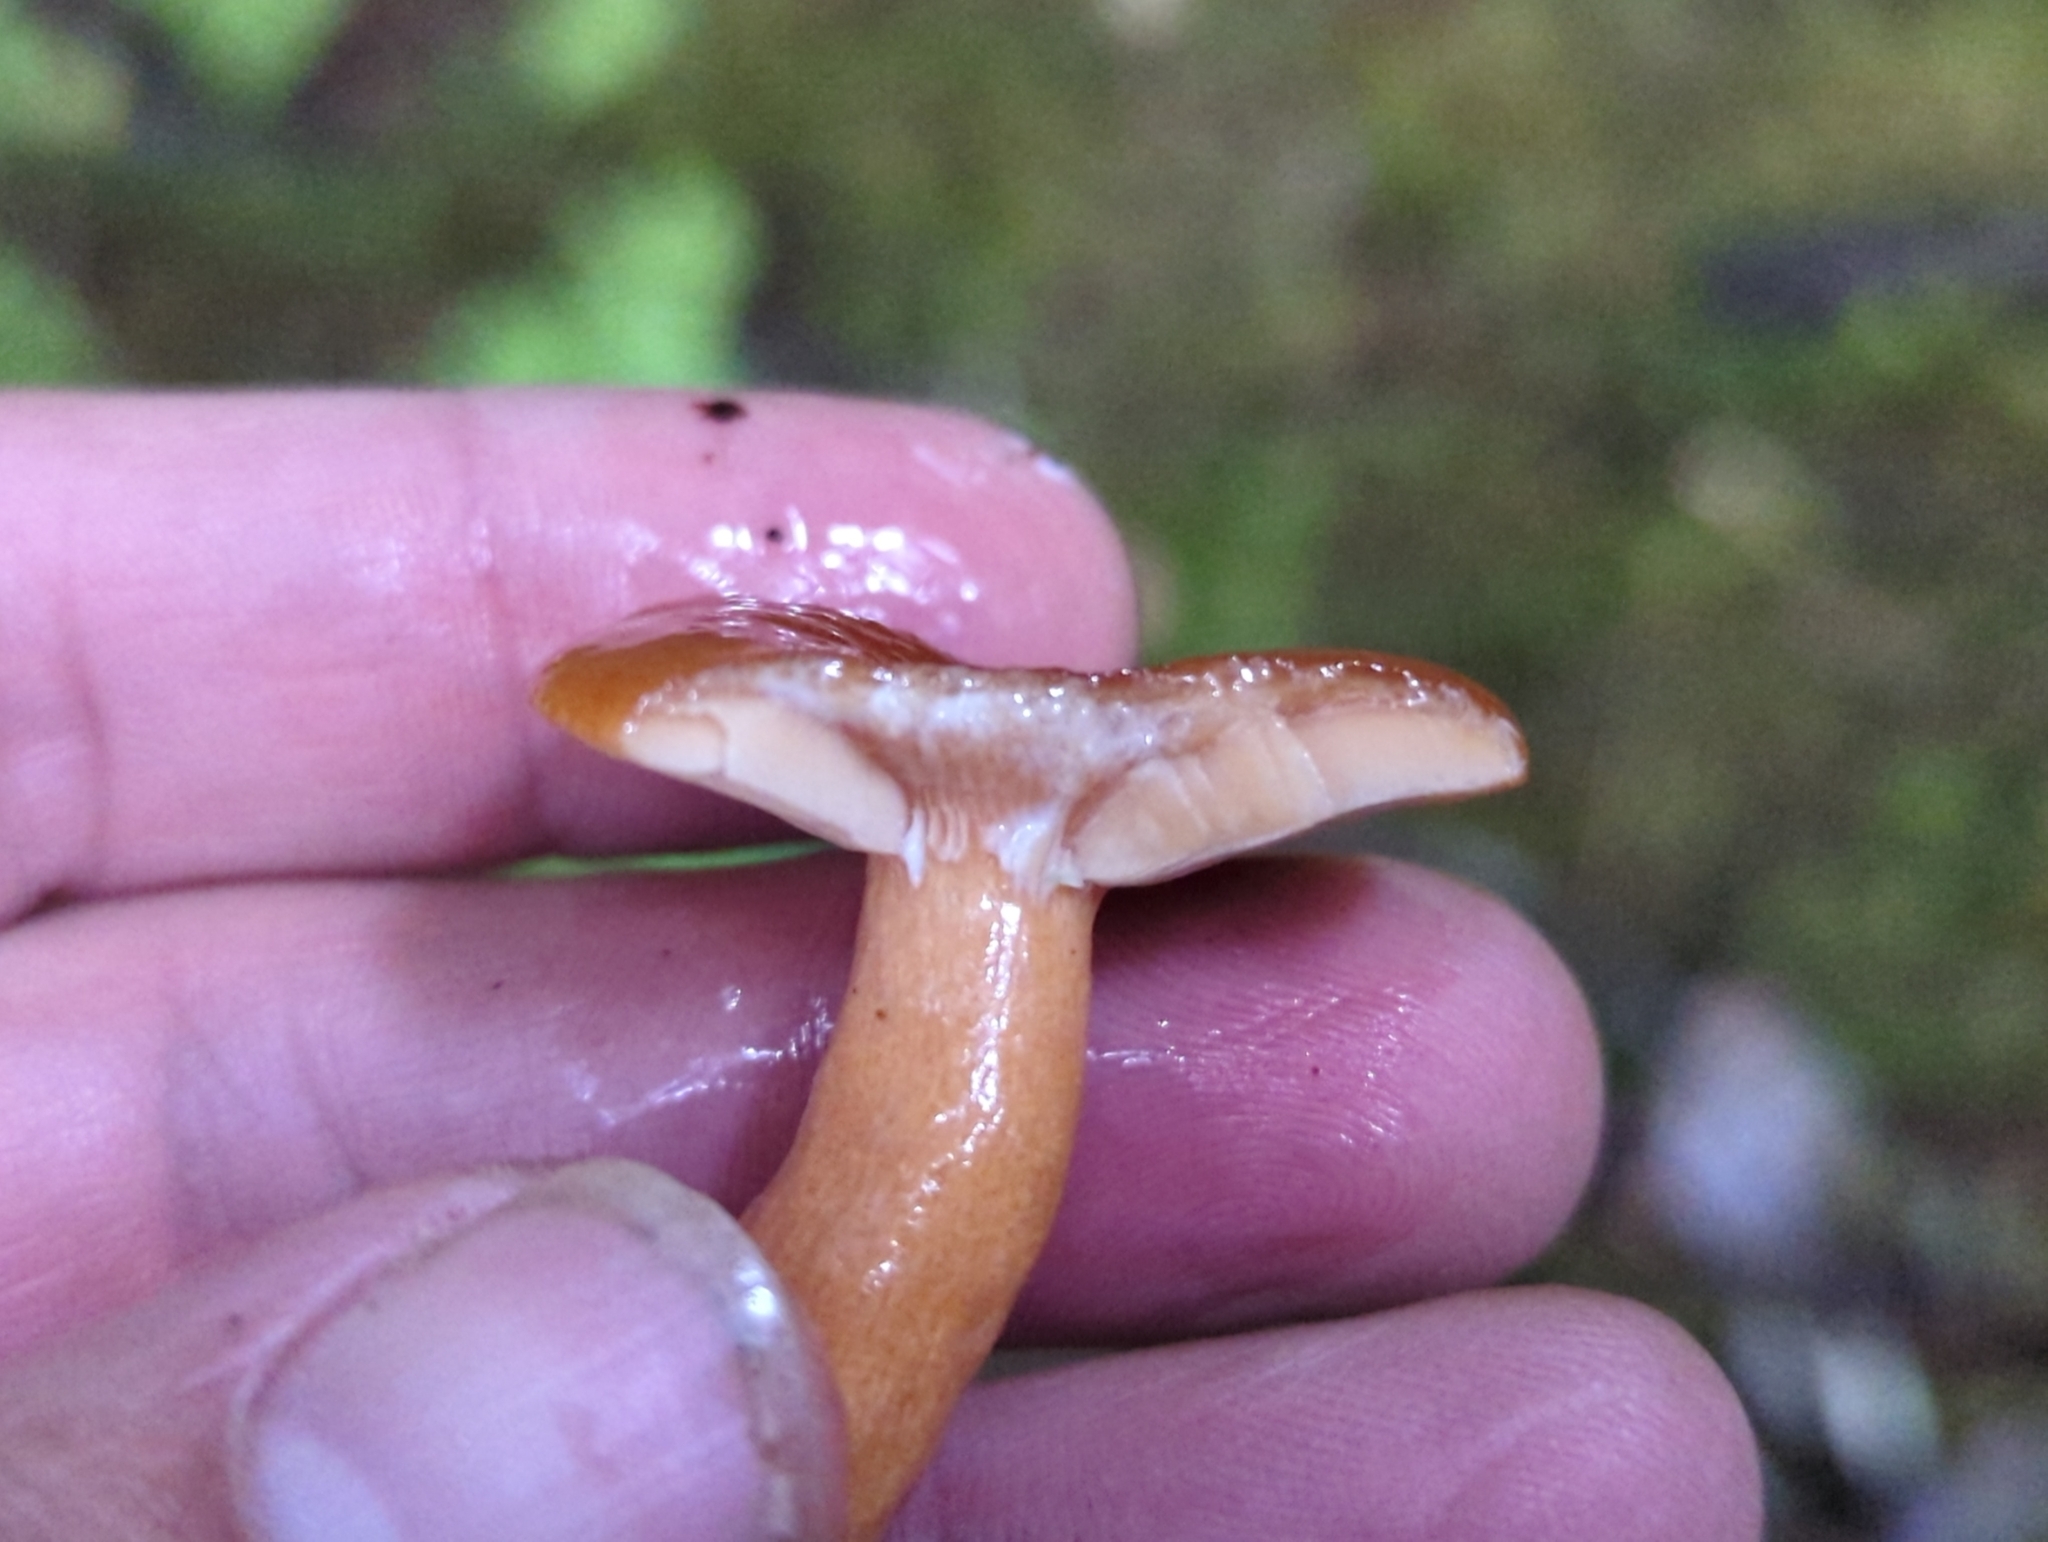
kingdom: Fungi
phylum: Basidiomycota
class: Agaricomycetes
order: Russulales
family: Russulaceae
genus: Lactarius
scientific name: Lactarius subviscidus
